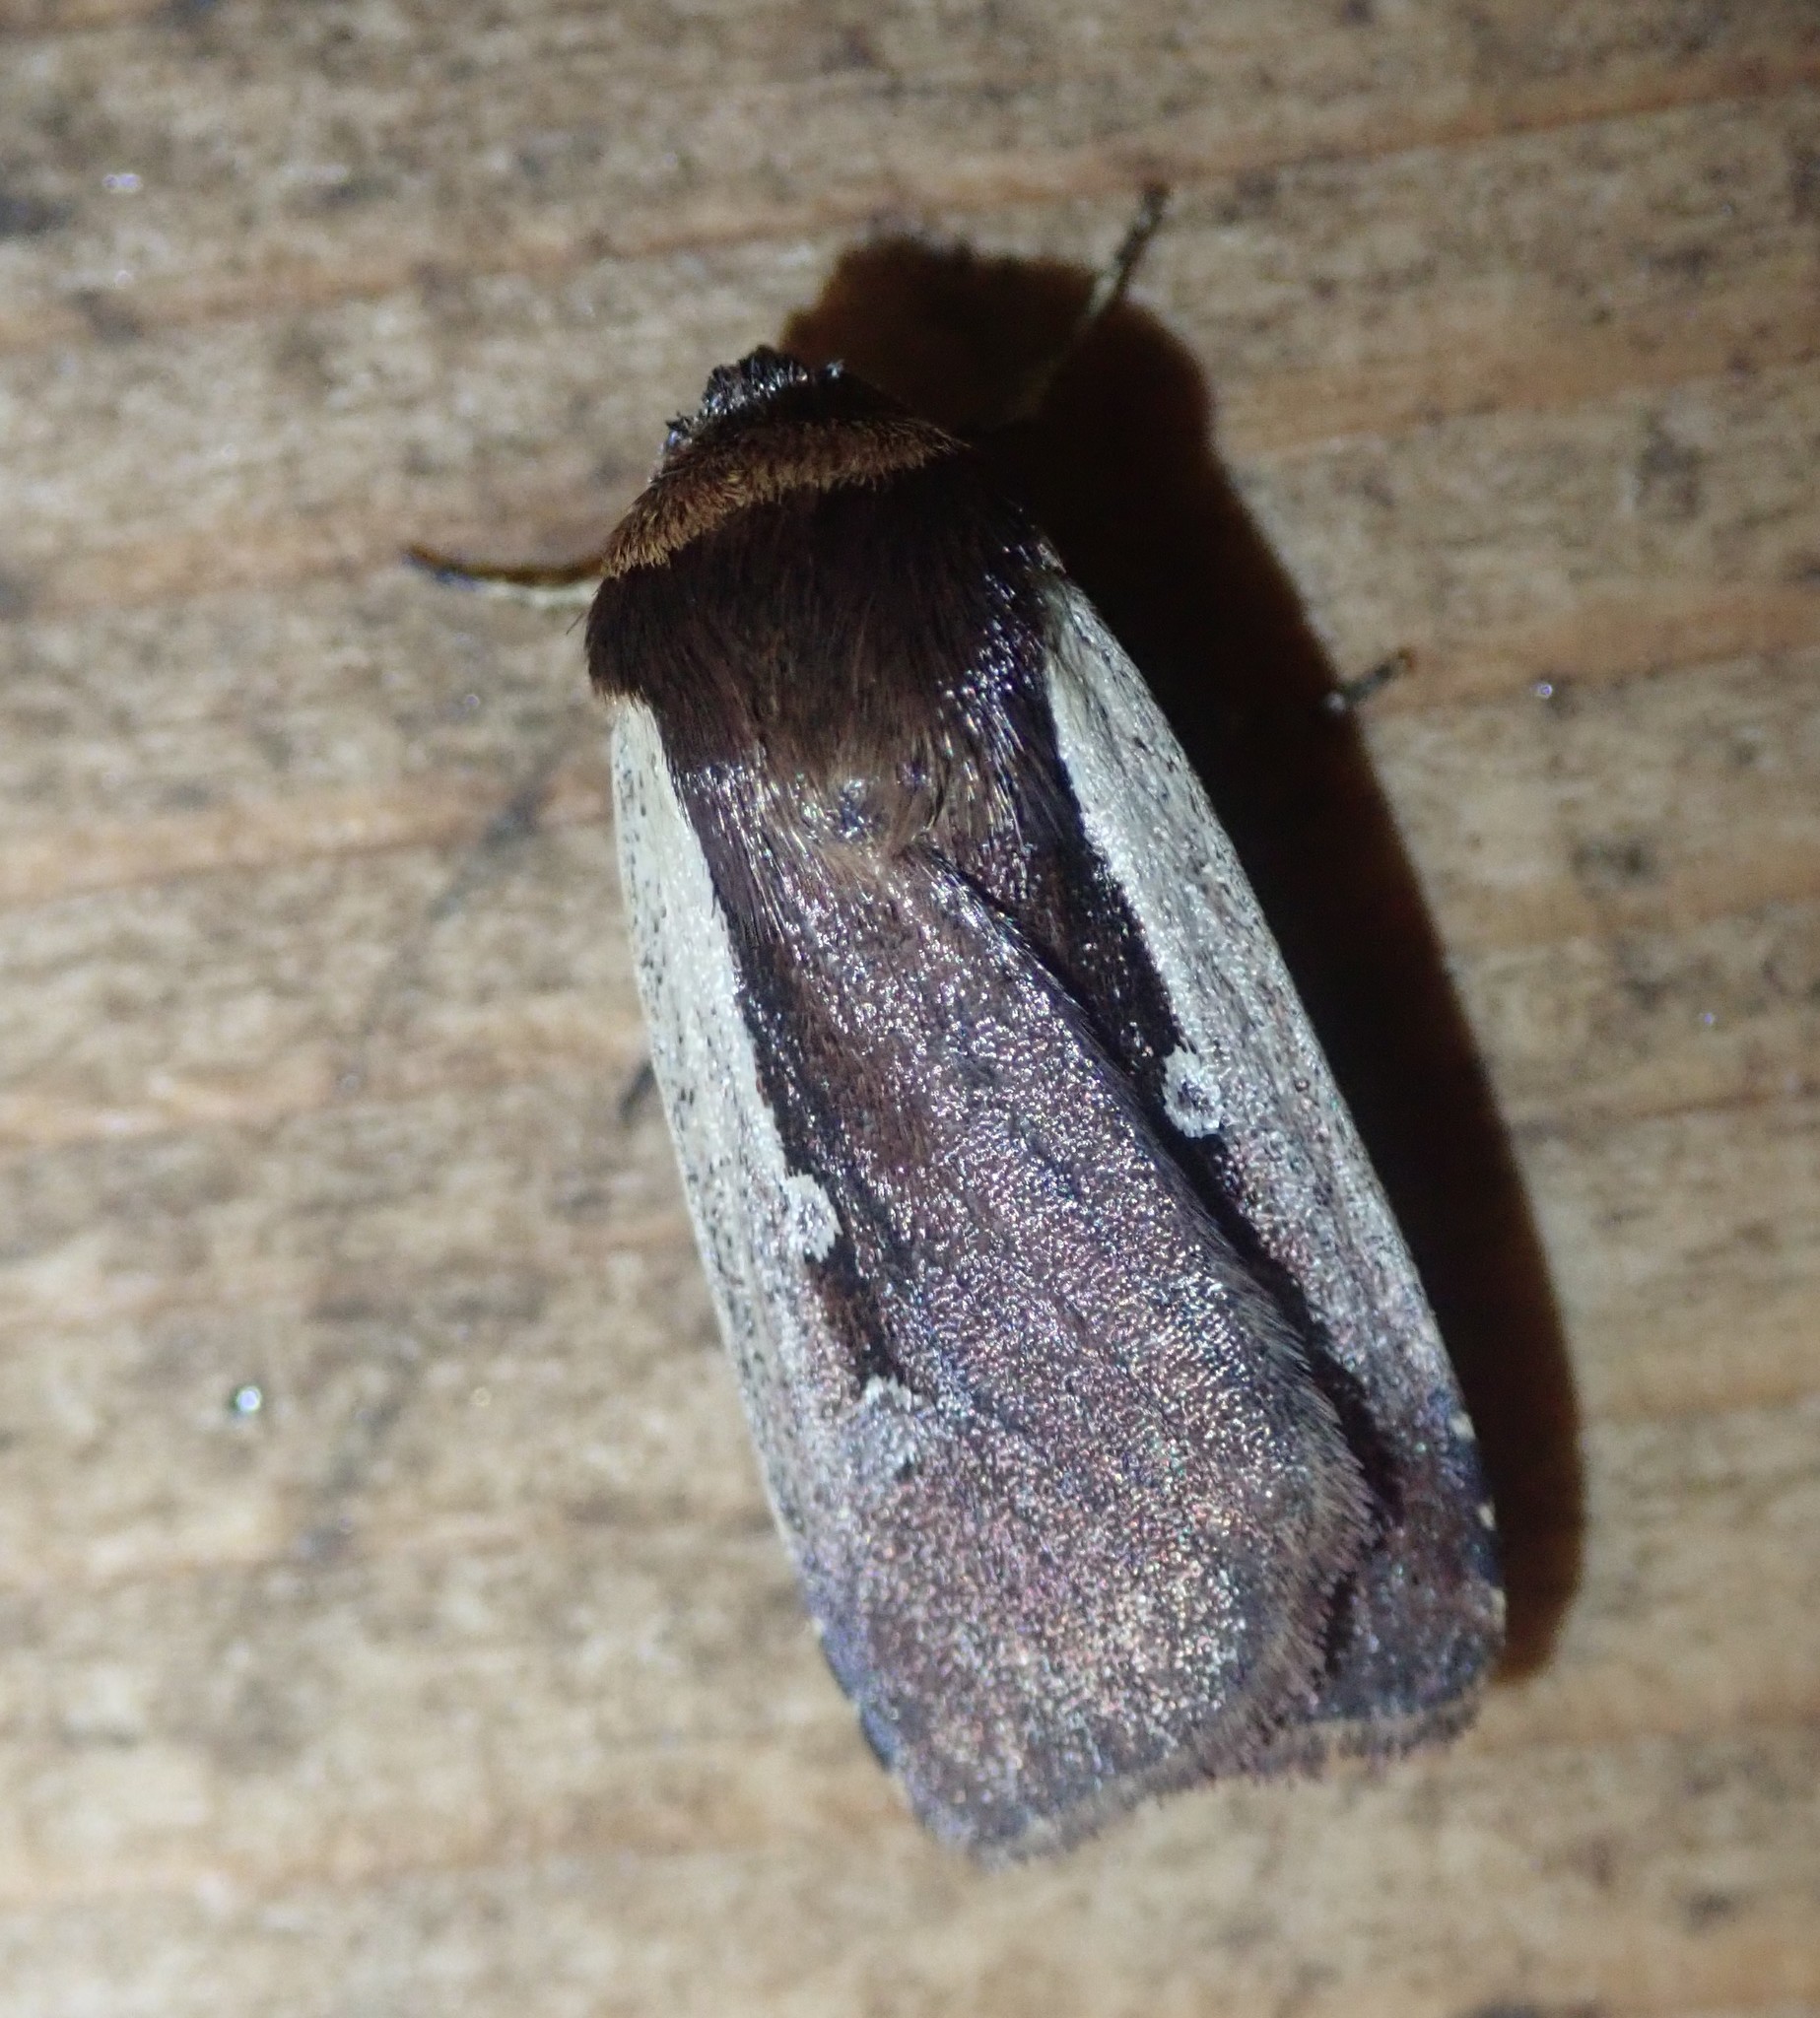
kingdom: Animalia
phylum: Arthropoda
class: Insecta
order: Lepidoptera
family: Noctuidae
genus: Ochropleura
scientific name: Ochropleura plecta
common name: Flame shoulder
